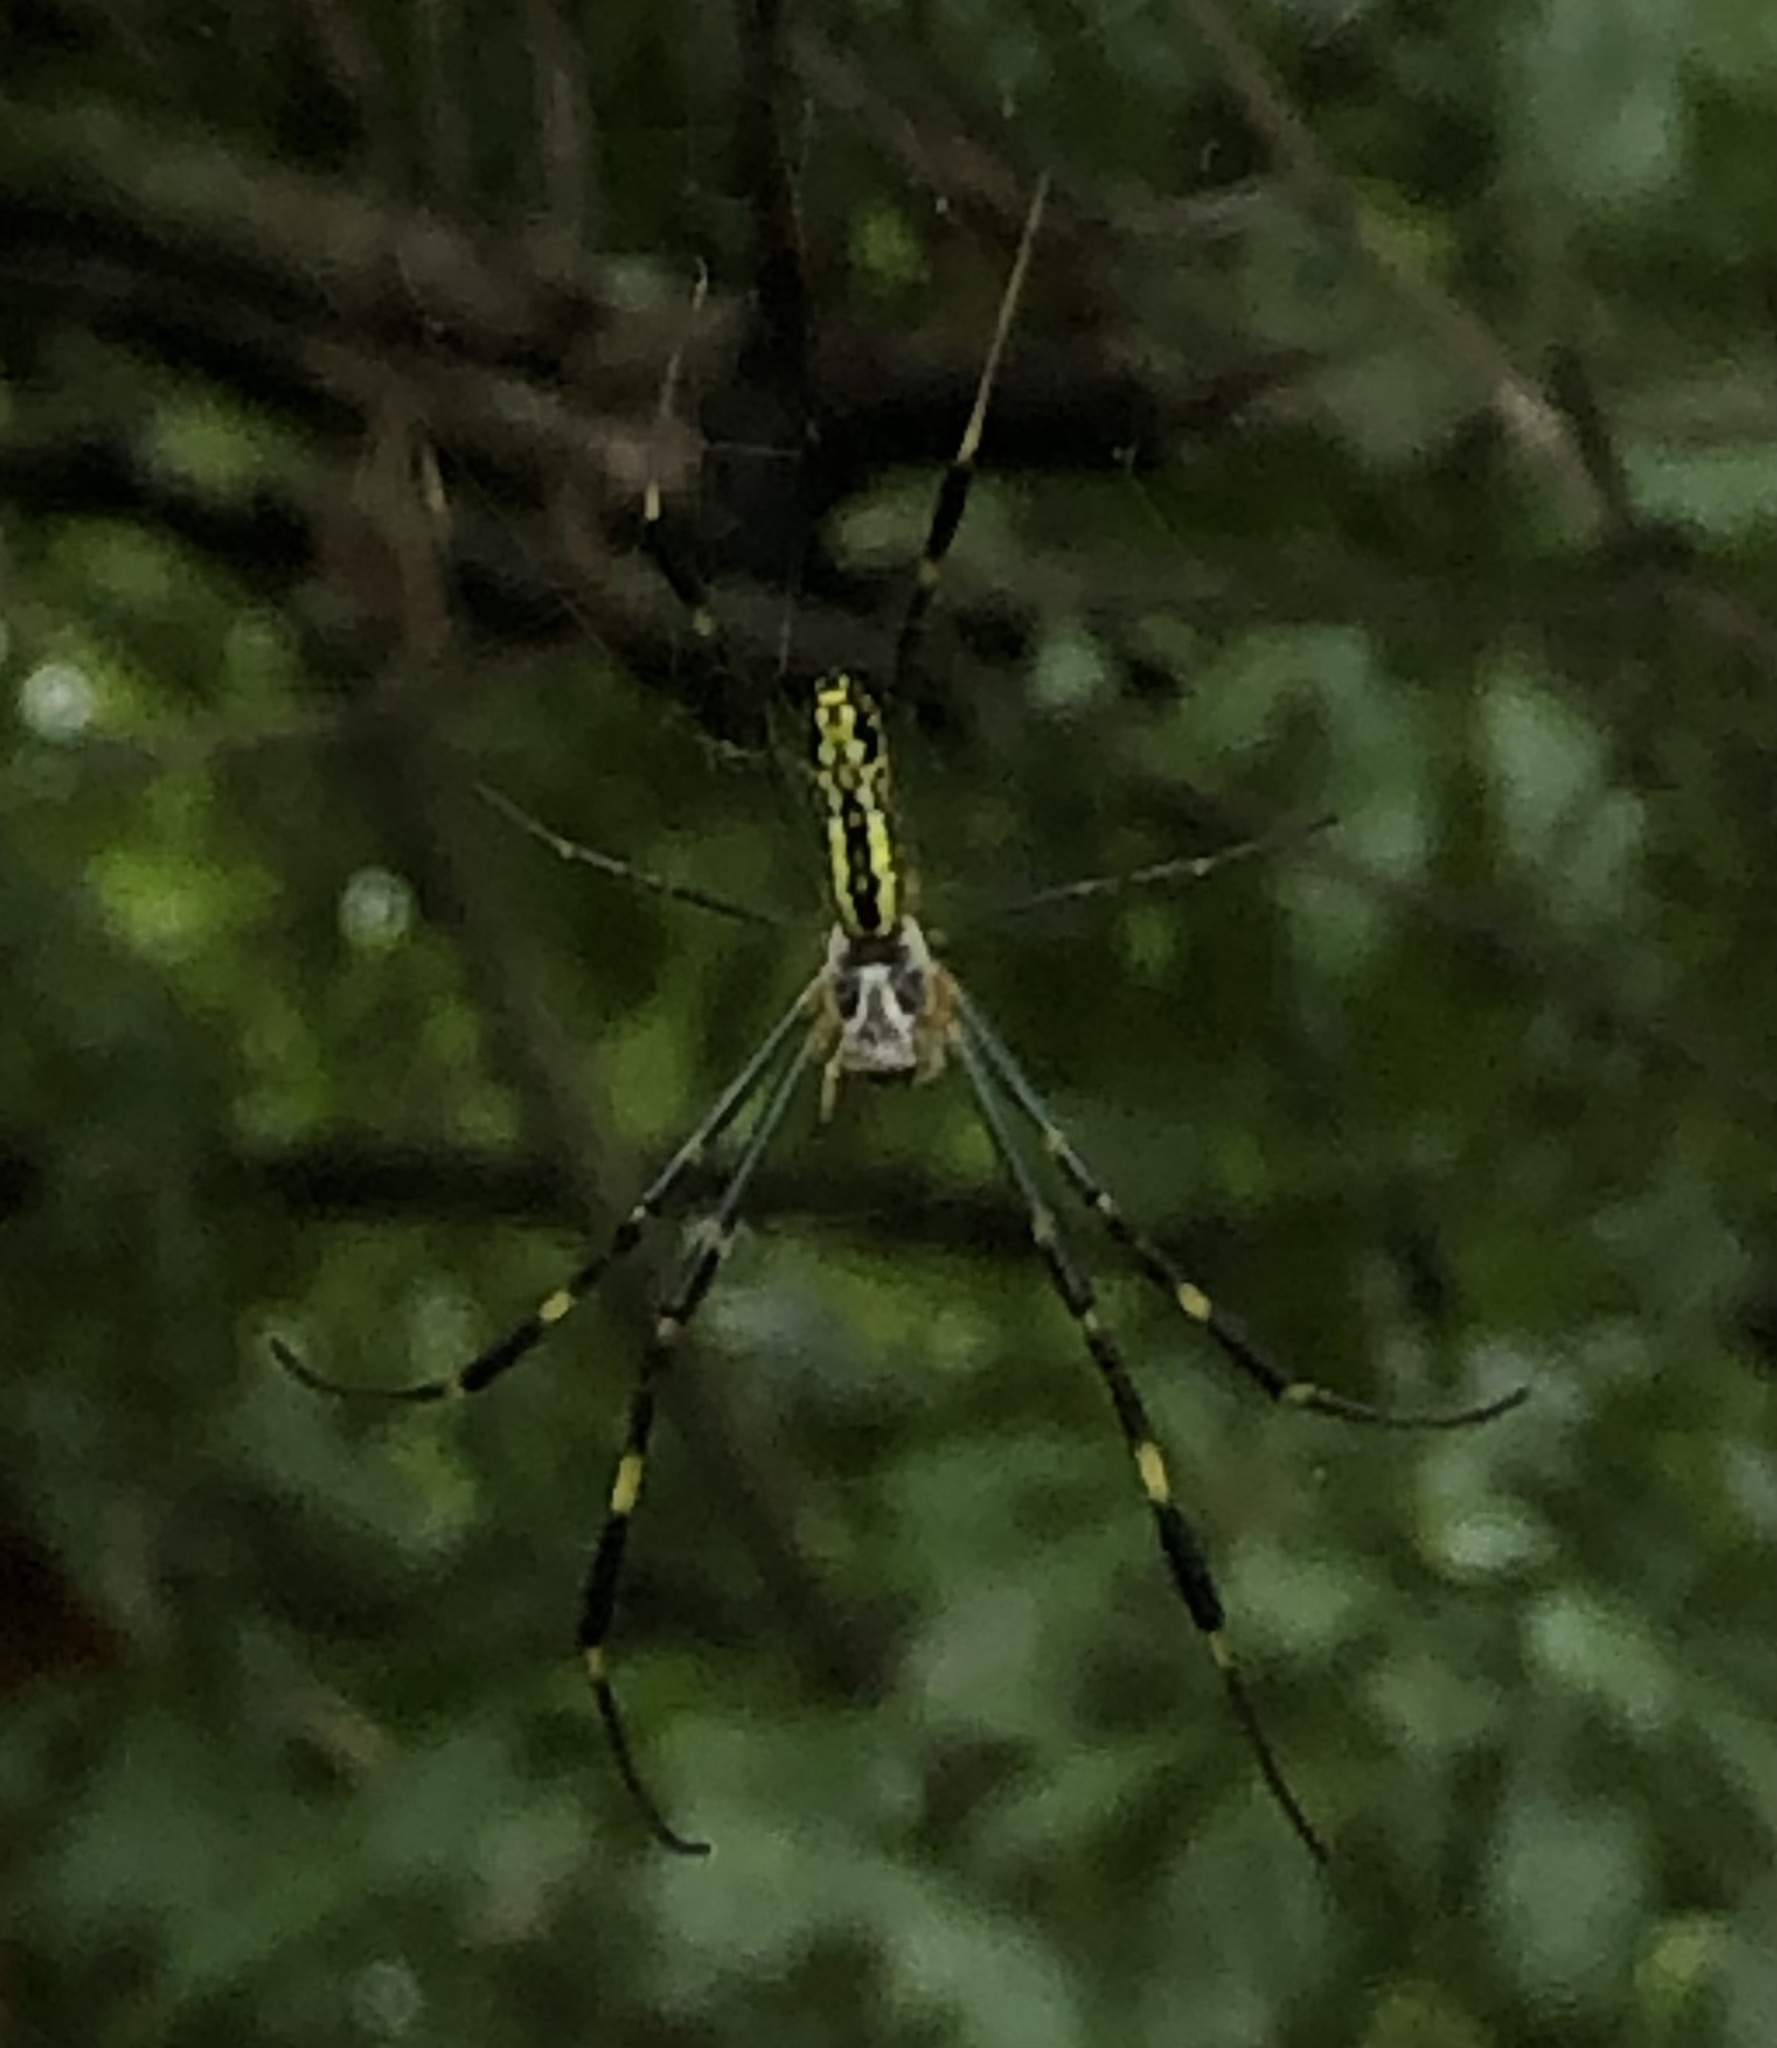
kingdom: Animalia
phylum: Arthropoda
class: Arachnida
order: Araneae
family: Araneidae
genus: Trichonephila
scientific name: Trichonephila clavata
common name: Jorō spider
